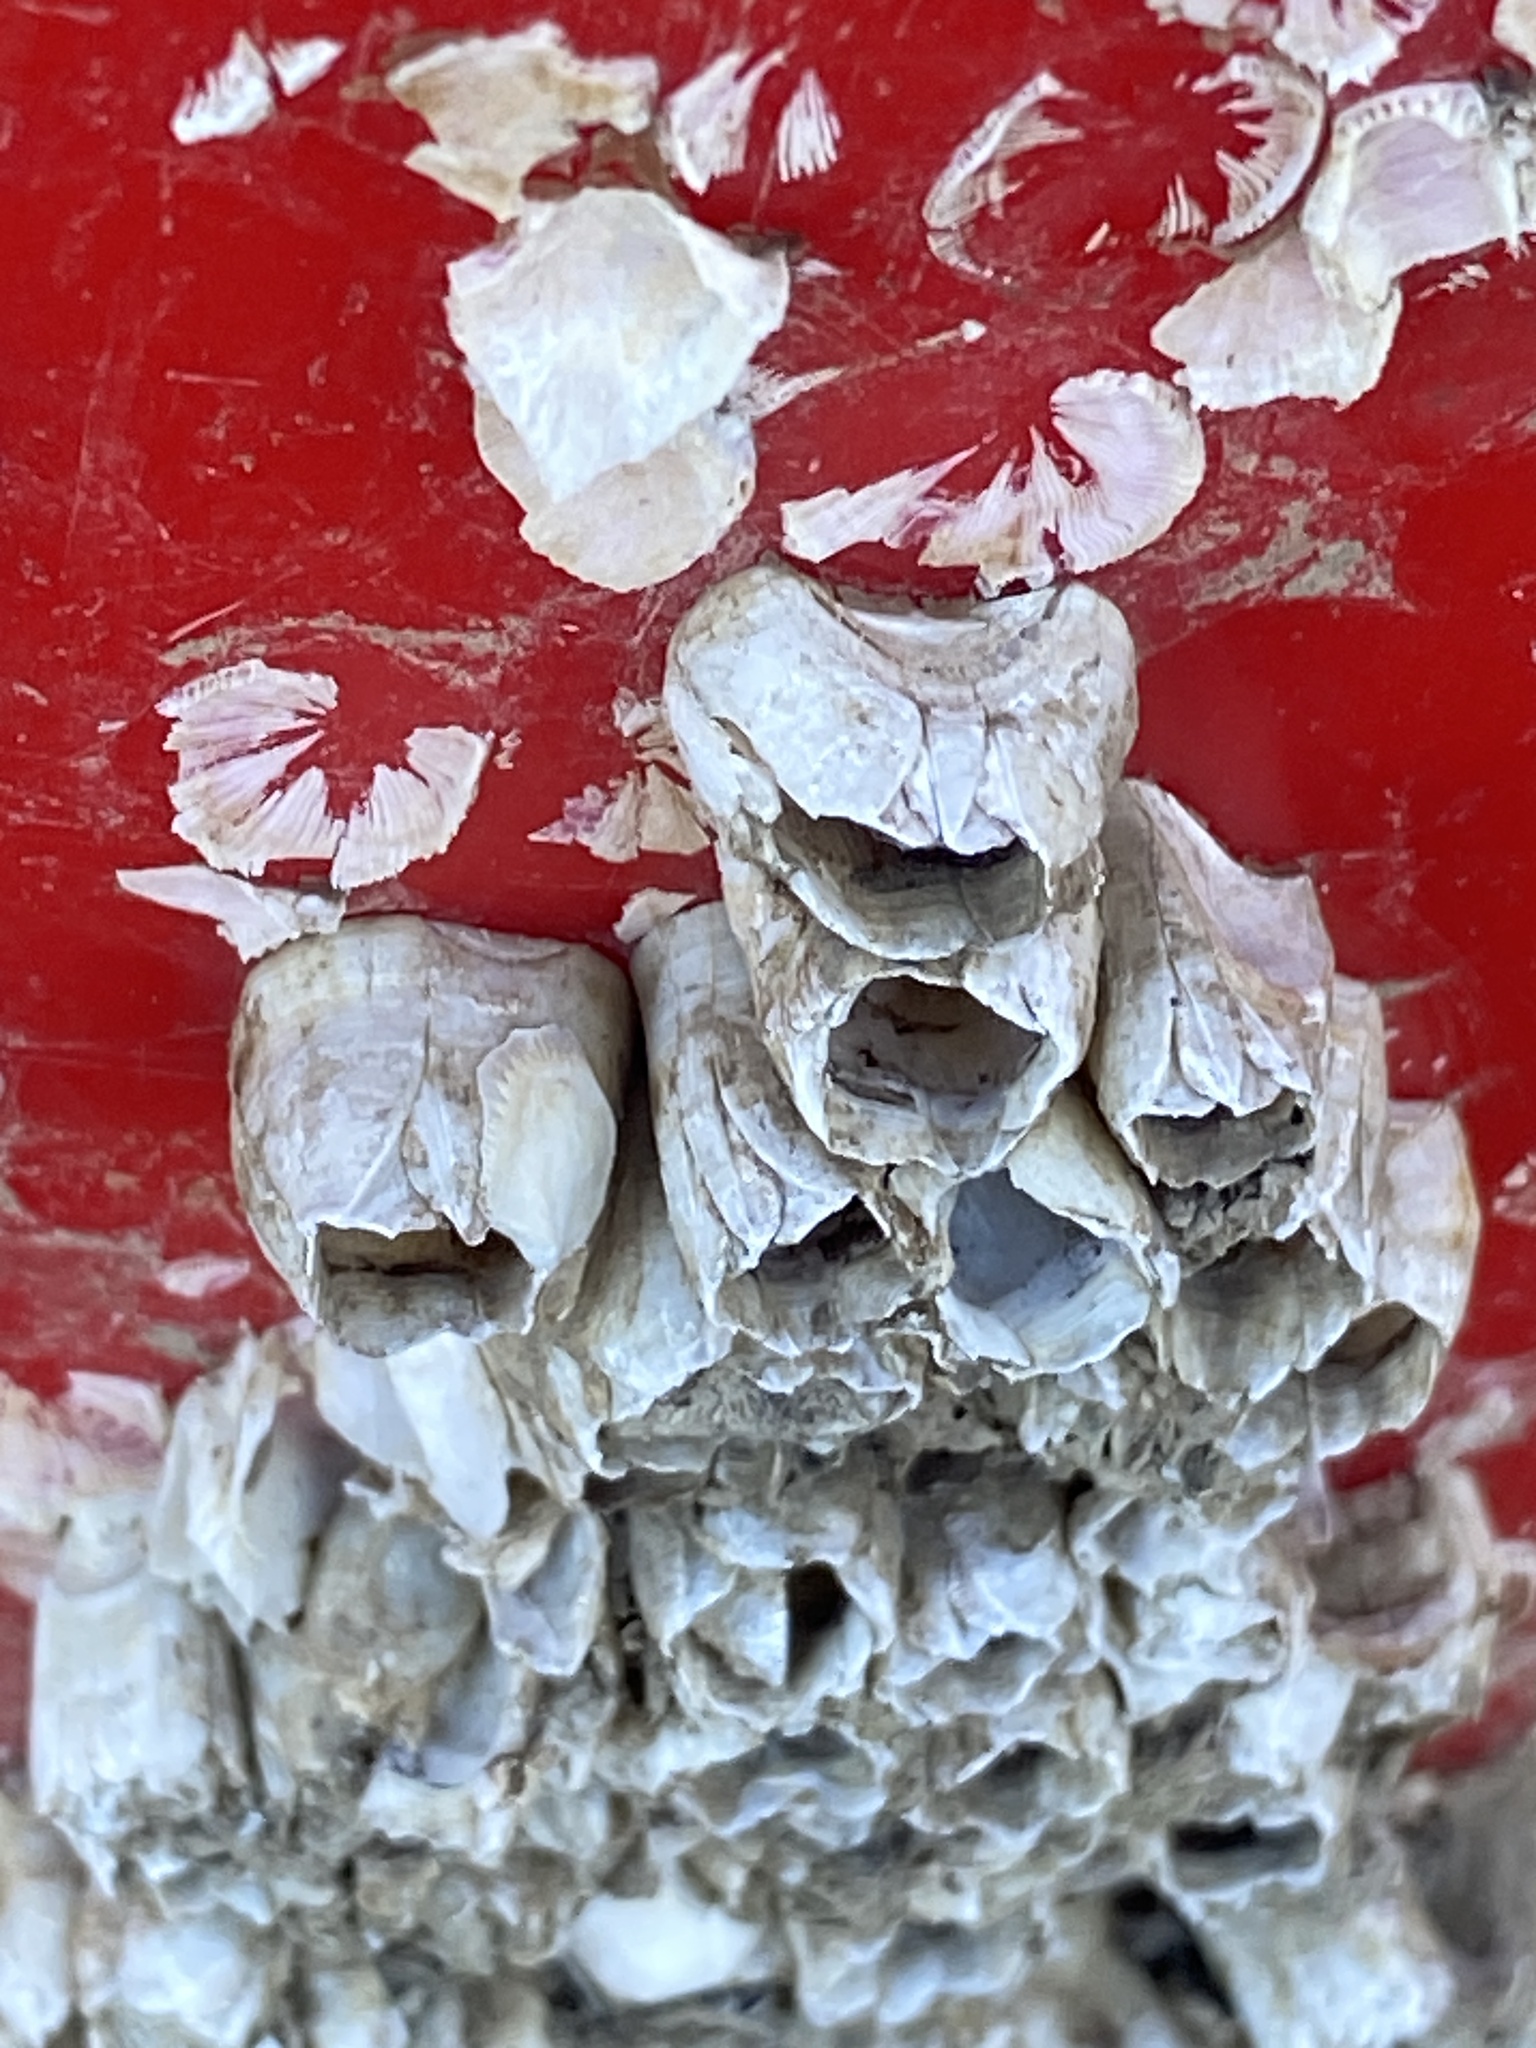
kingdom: Animalia
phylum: Arthropoda
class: Maxillopoda
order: Sessilia
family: Balanidae
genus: Amphibalanus
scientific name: Amphibalanus eburneus
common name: Ivory barnacle
